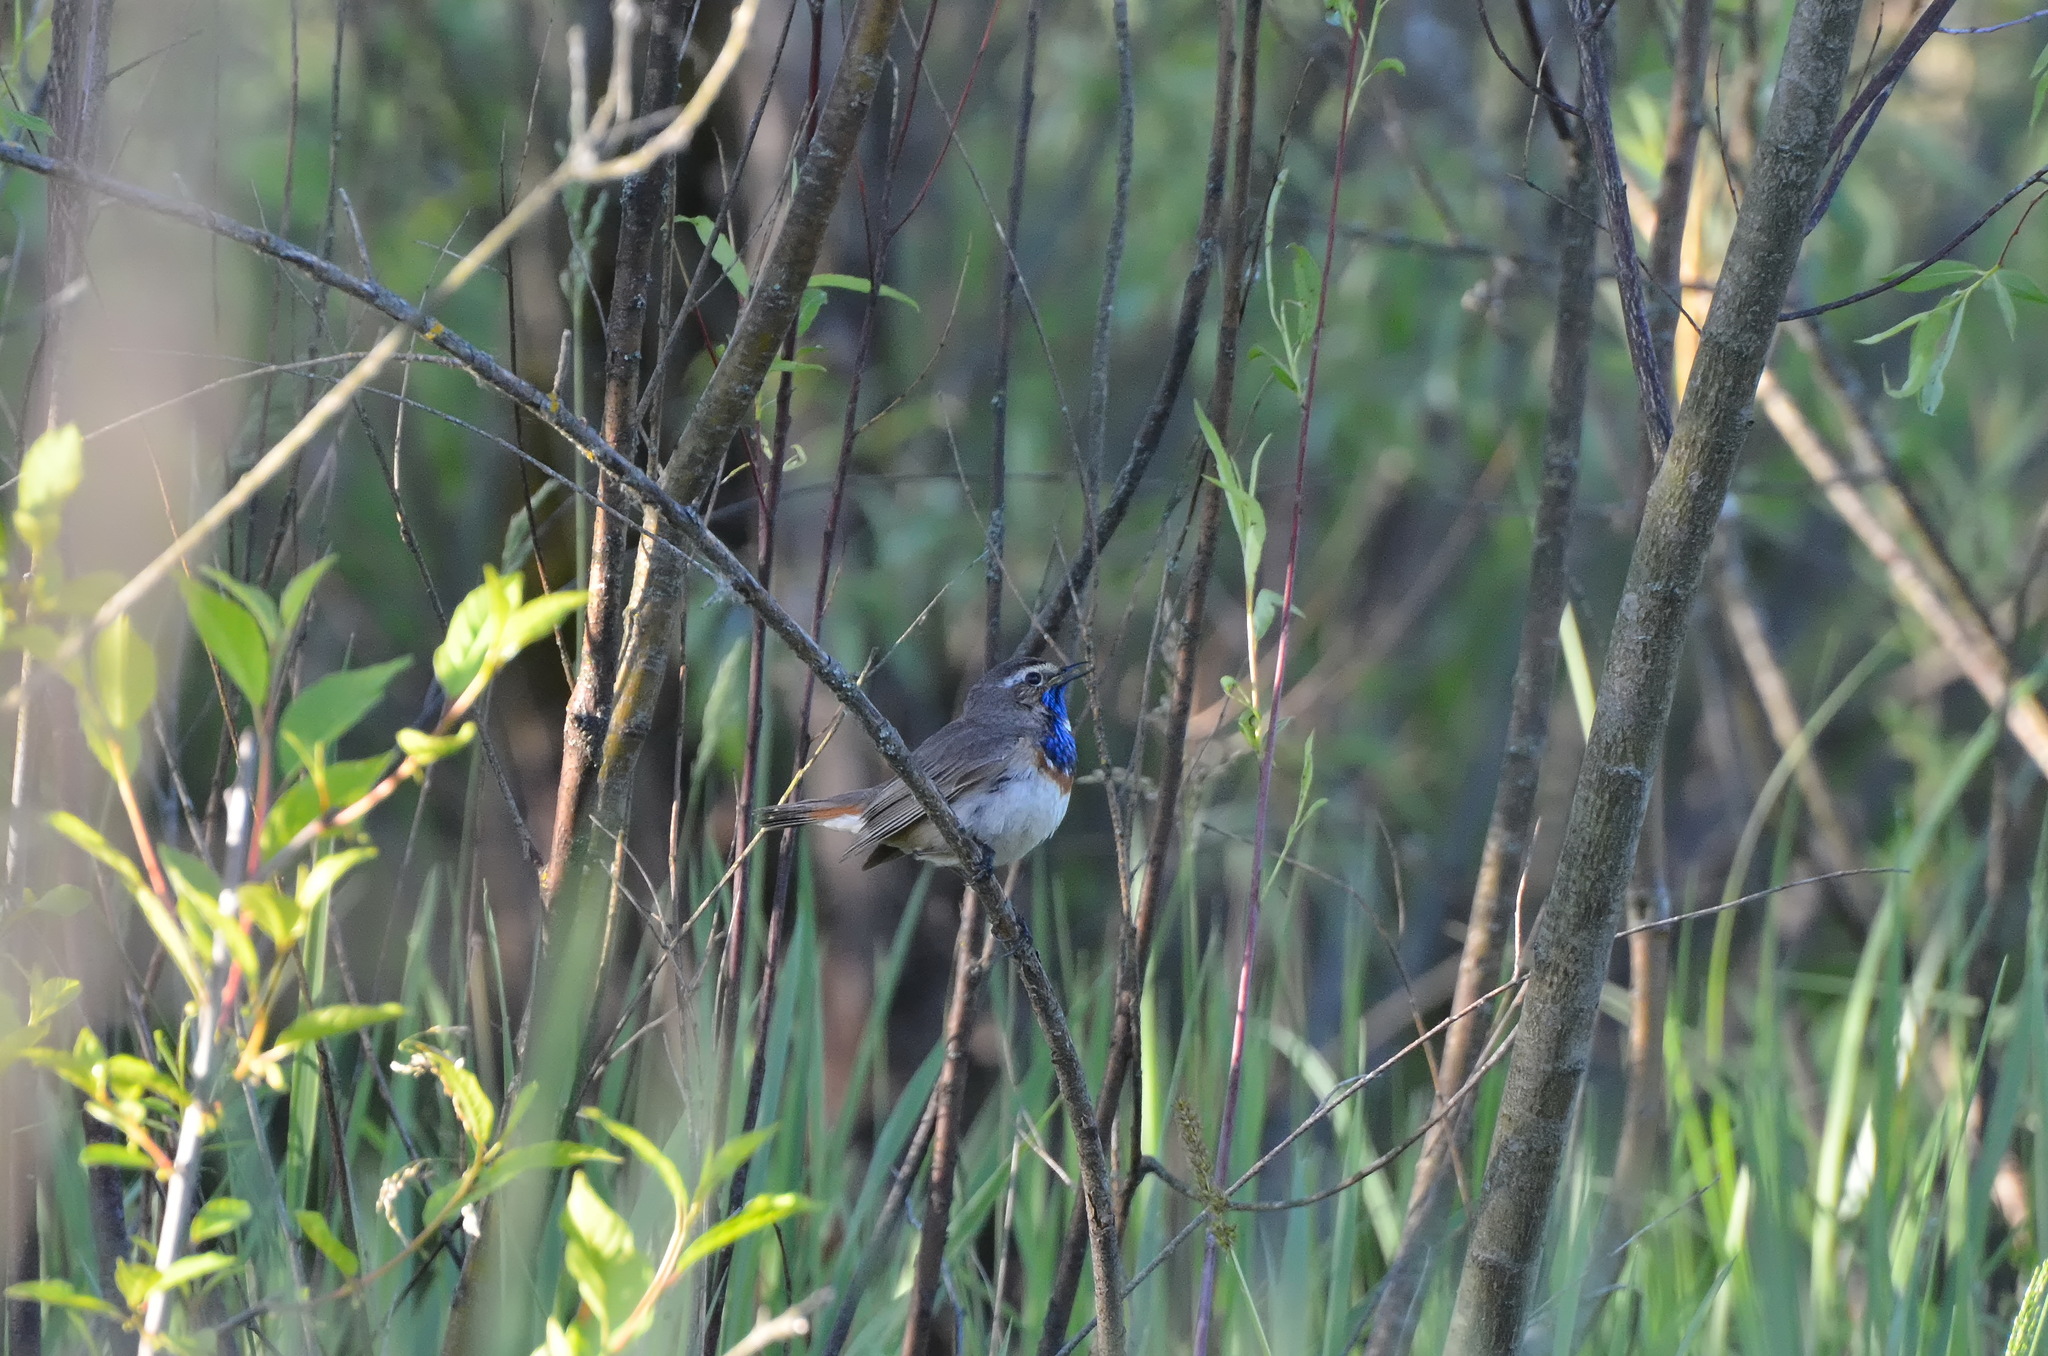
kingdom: Animalia
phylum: Chordata
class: Aves
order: Passeriformes
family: Muscicapidae
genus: Luscinia
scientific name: Luscinia svecica
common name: Bluethroat
